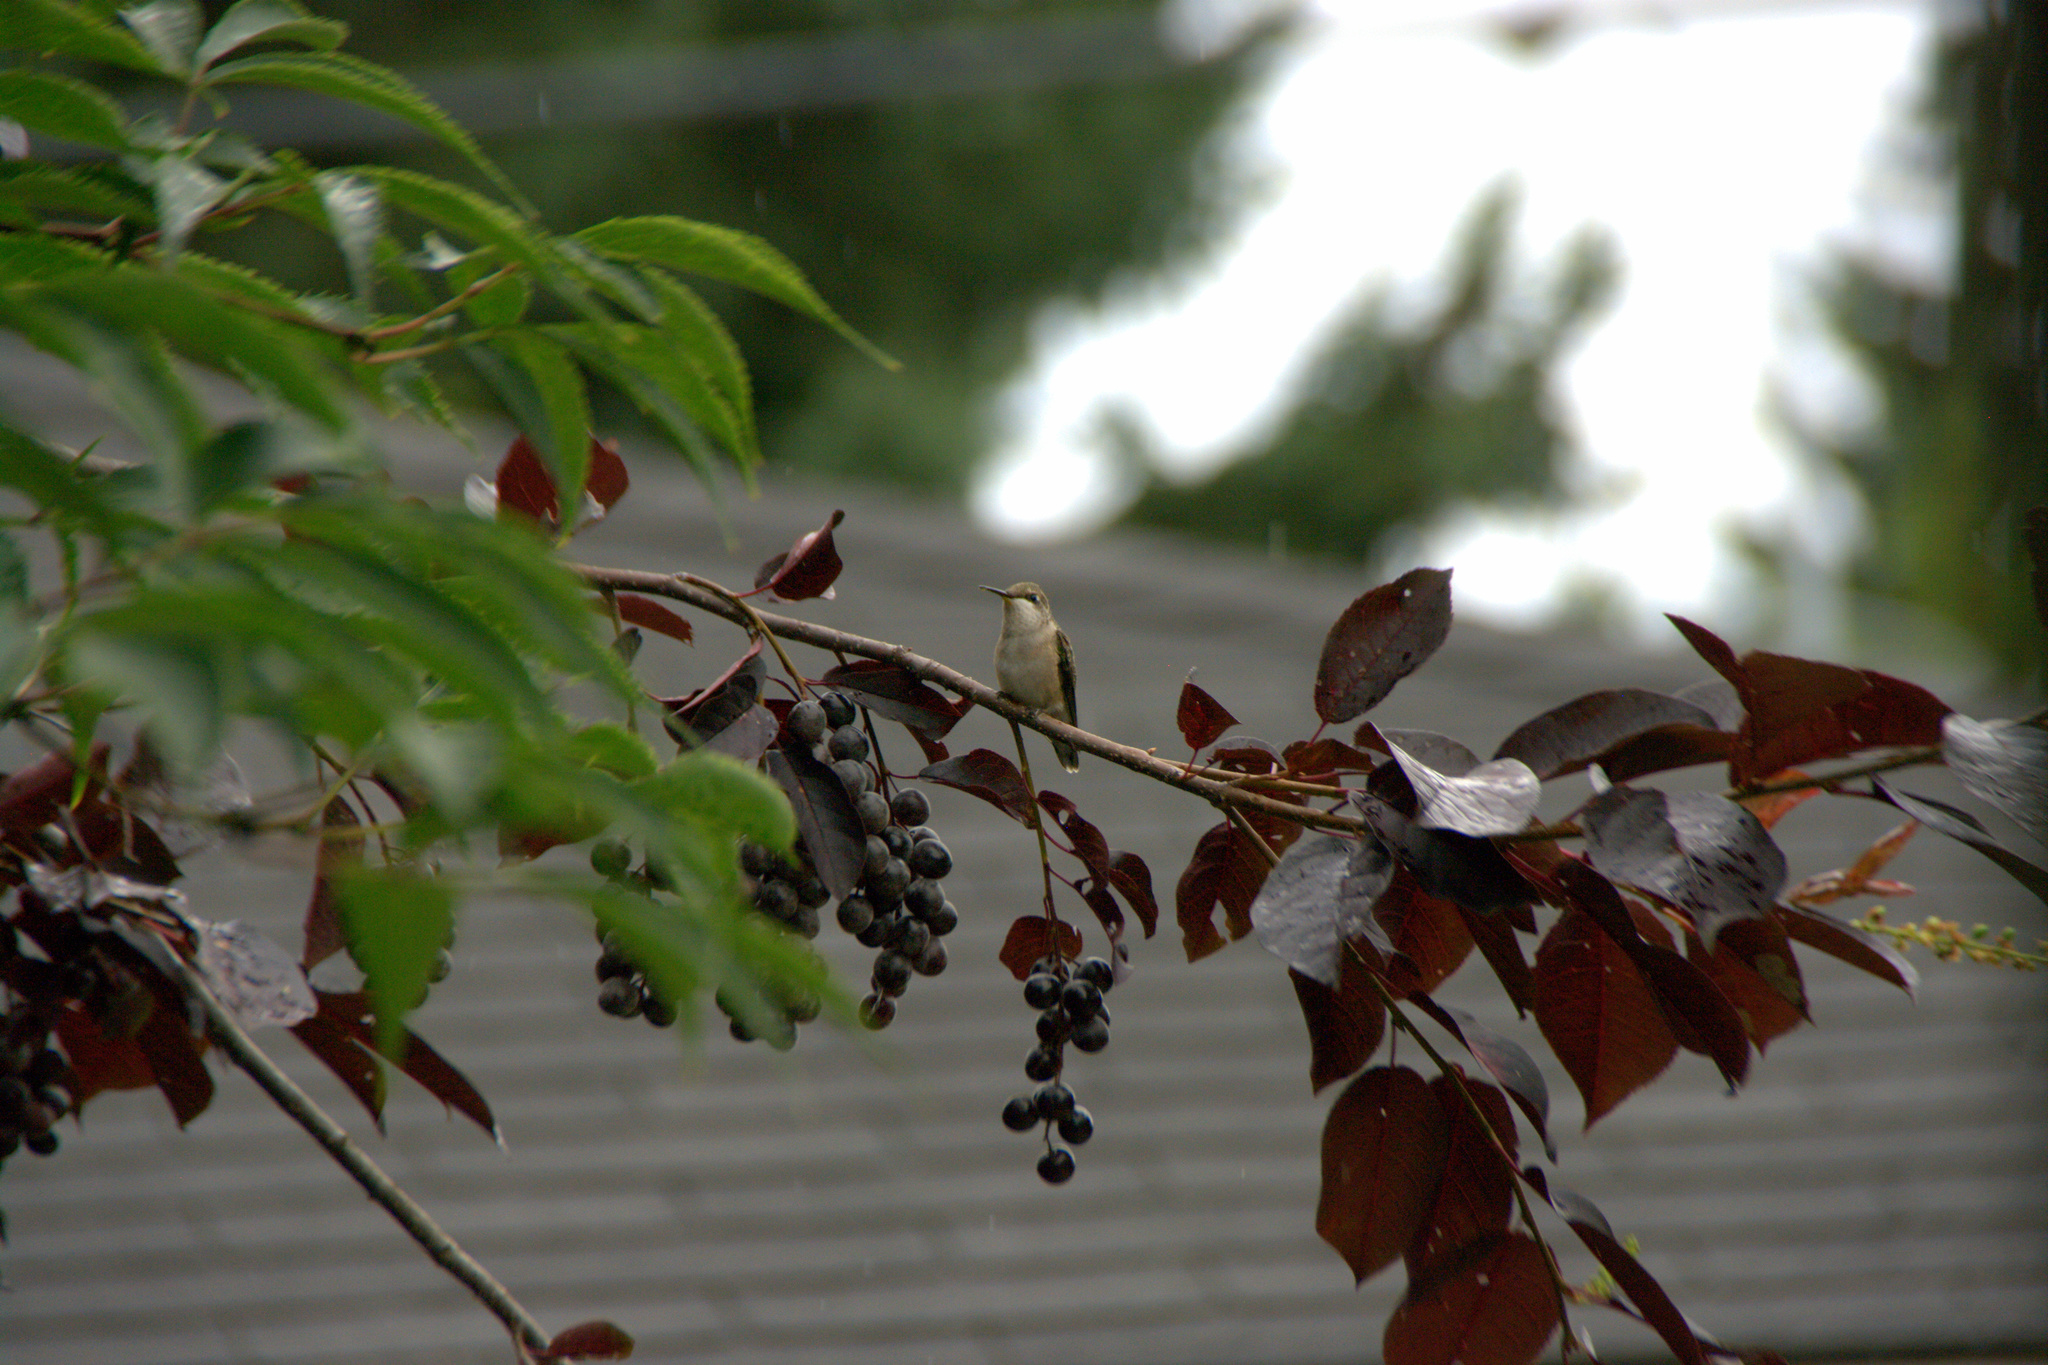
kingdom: Animalia
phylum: Chordata
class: Aves
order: Apodiformes
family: Trochilidae
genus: Archilochus
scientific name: Archilochus colubris
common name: Ruby-throated hummingbird
